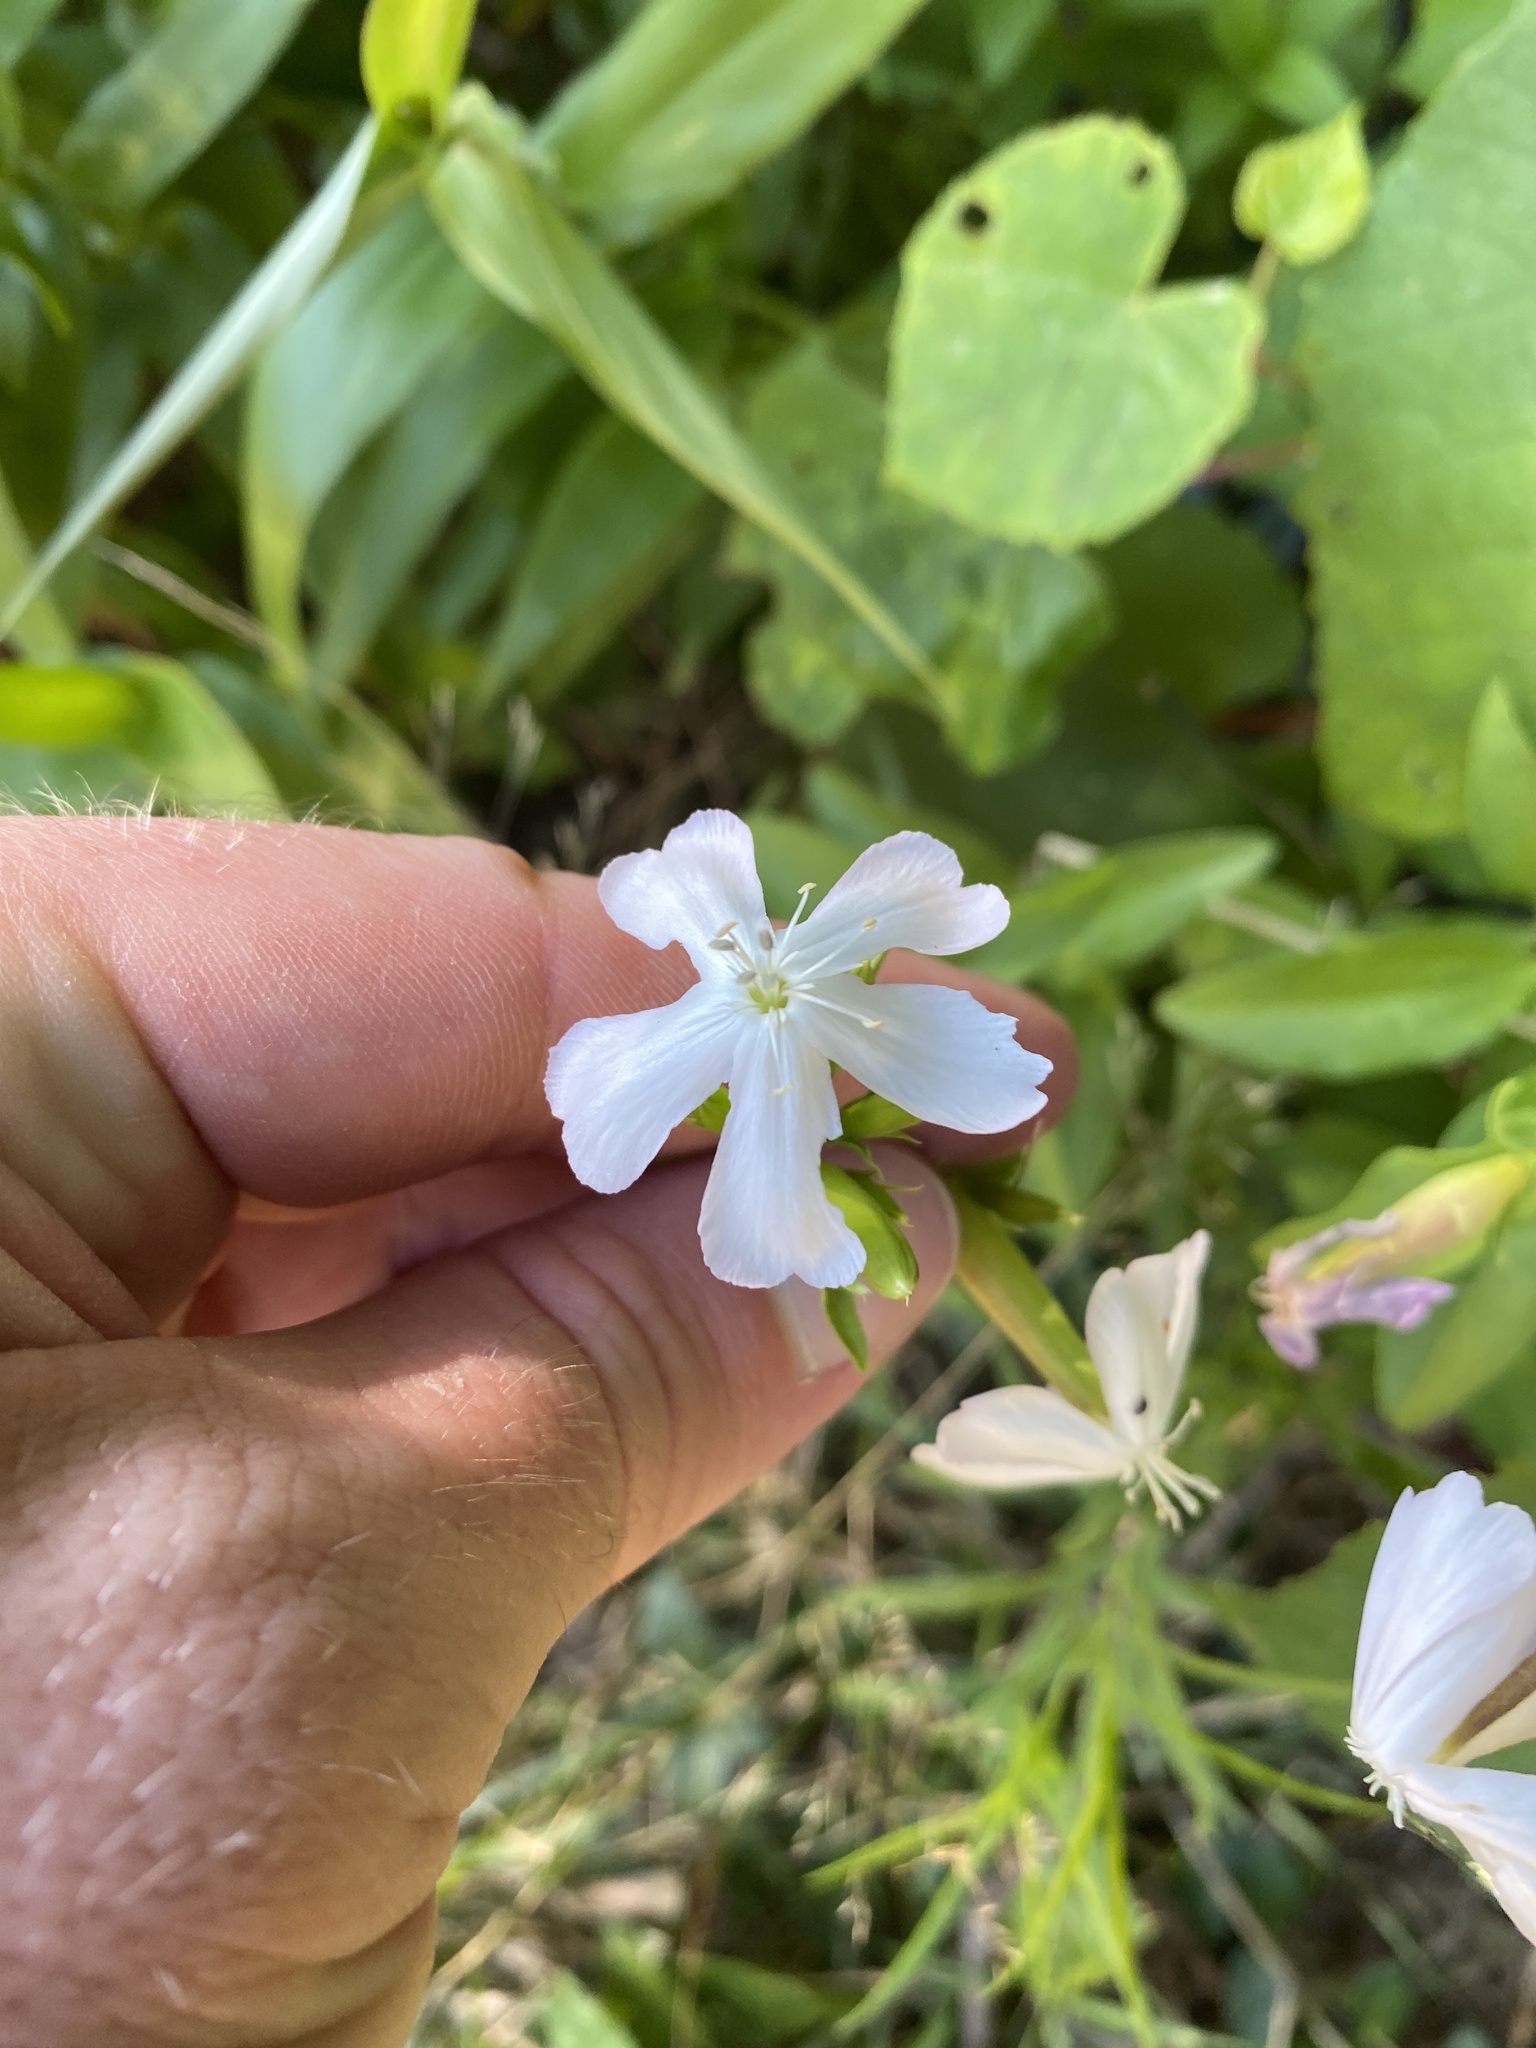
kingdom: Plantae
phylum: Tracheophyta
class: Magnoliopsida
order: Caryophyllales
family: Caryophyllaceae
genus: Saponaria
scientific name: Saponaria officinalis
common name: Soapwort
